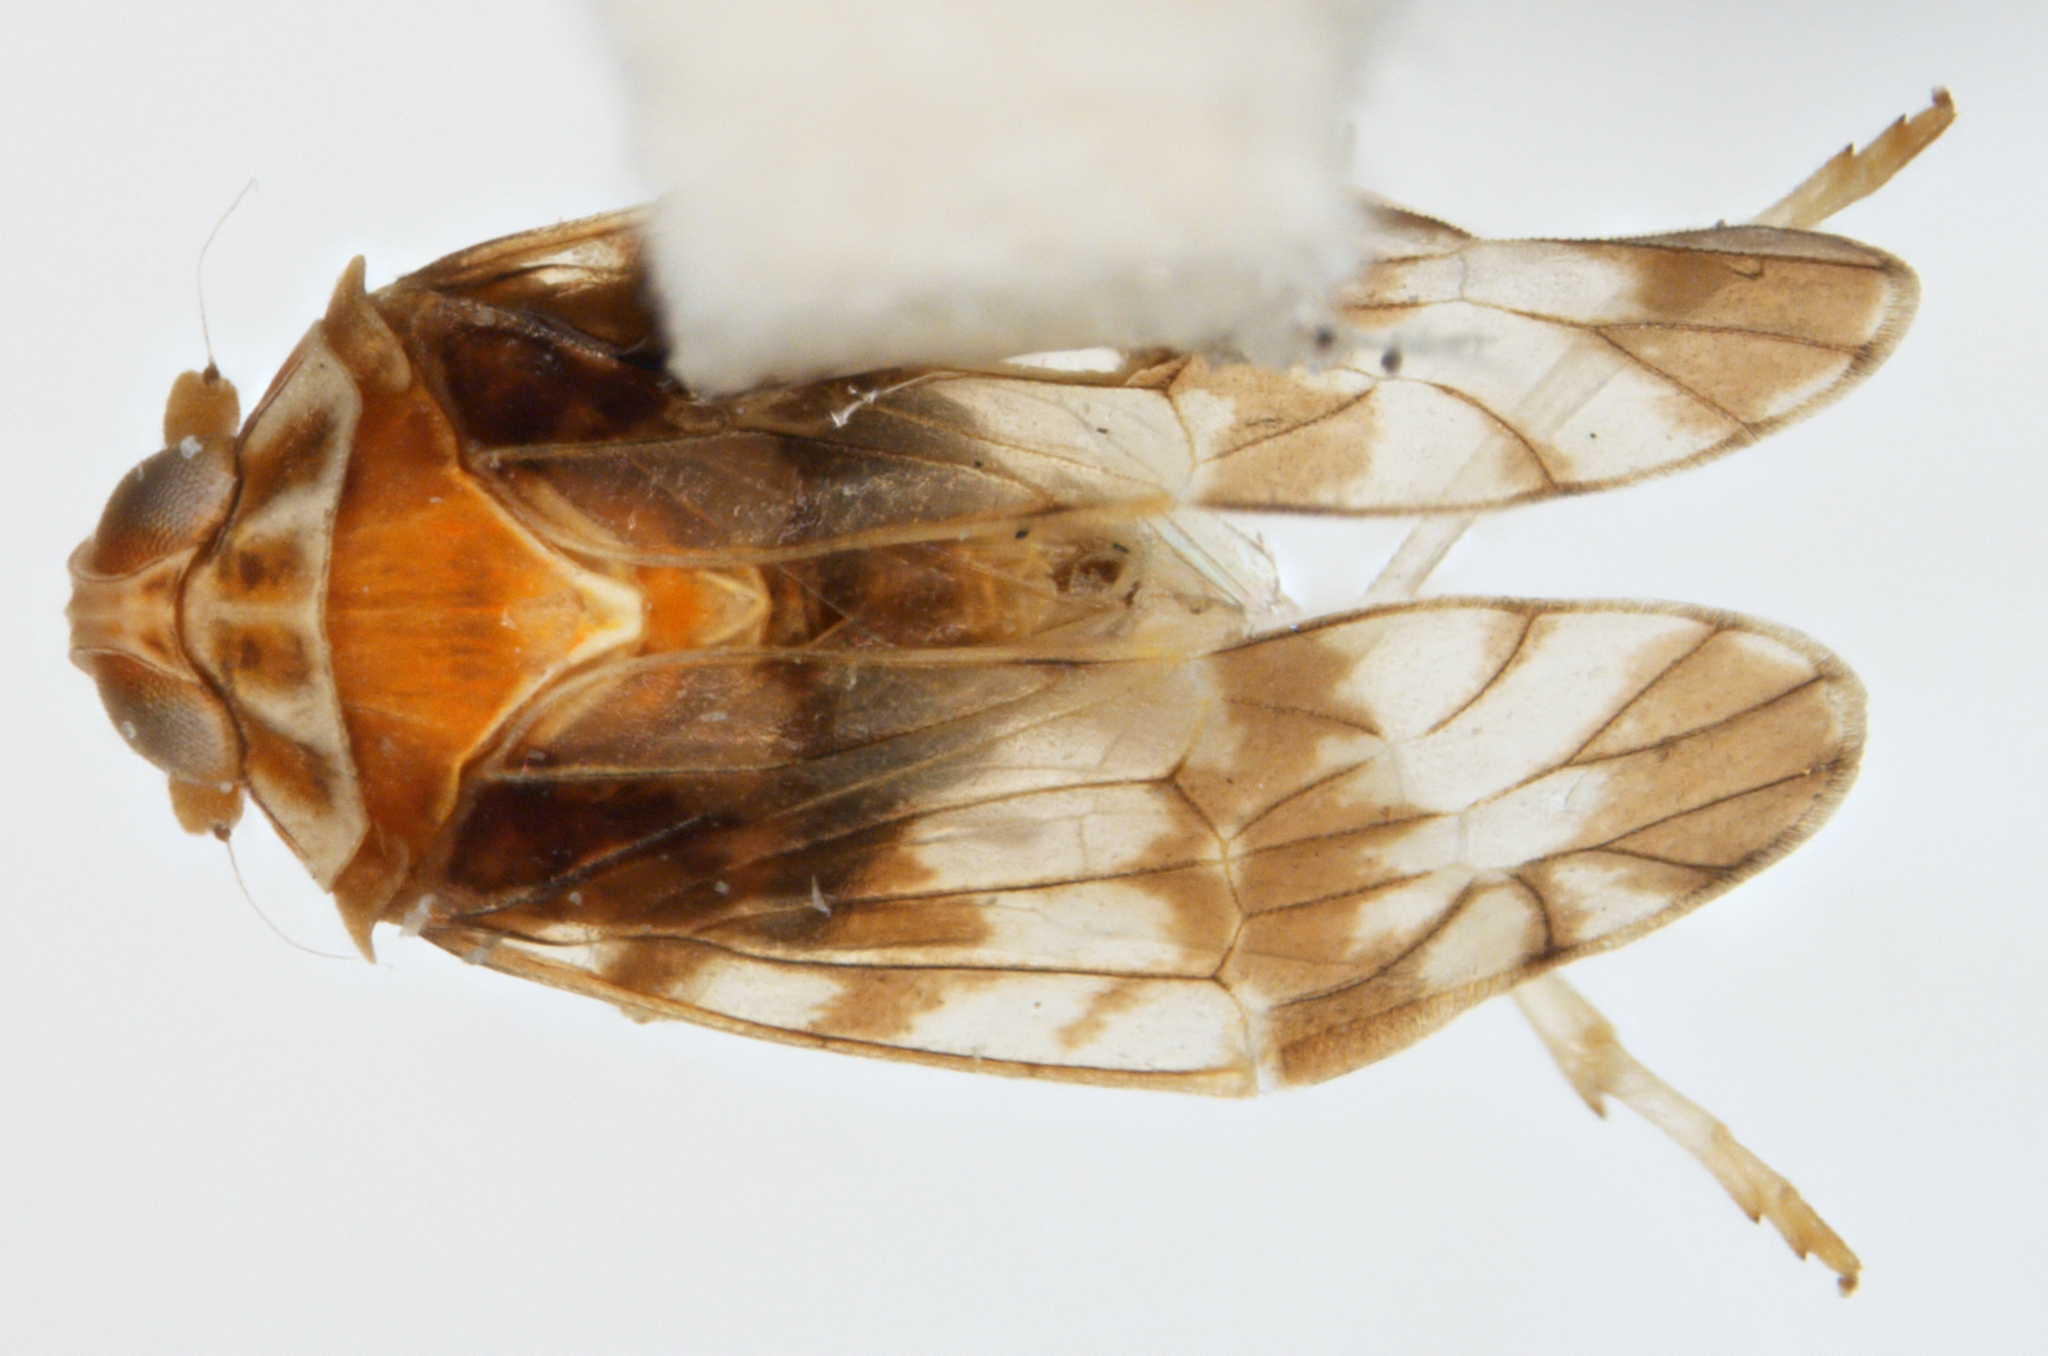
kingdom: Animalia
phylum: Arthropoda
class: Insecta
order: Hemiptera
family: Kinnaridae
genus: Prosotropis
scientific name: Prosotropis rubiginosa
